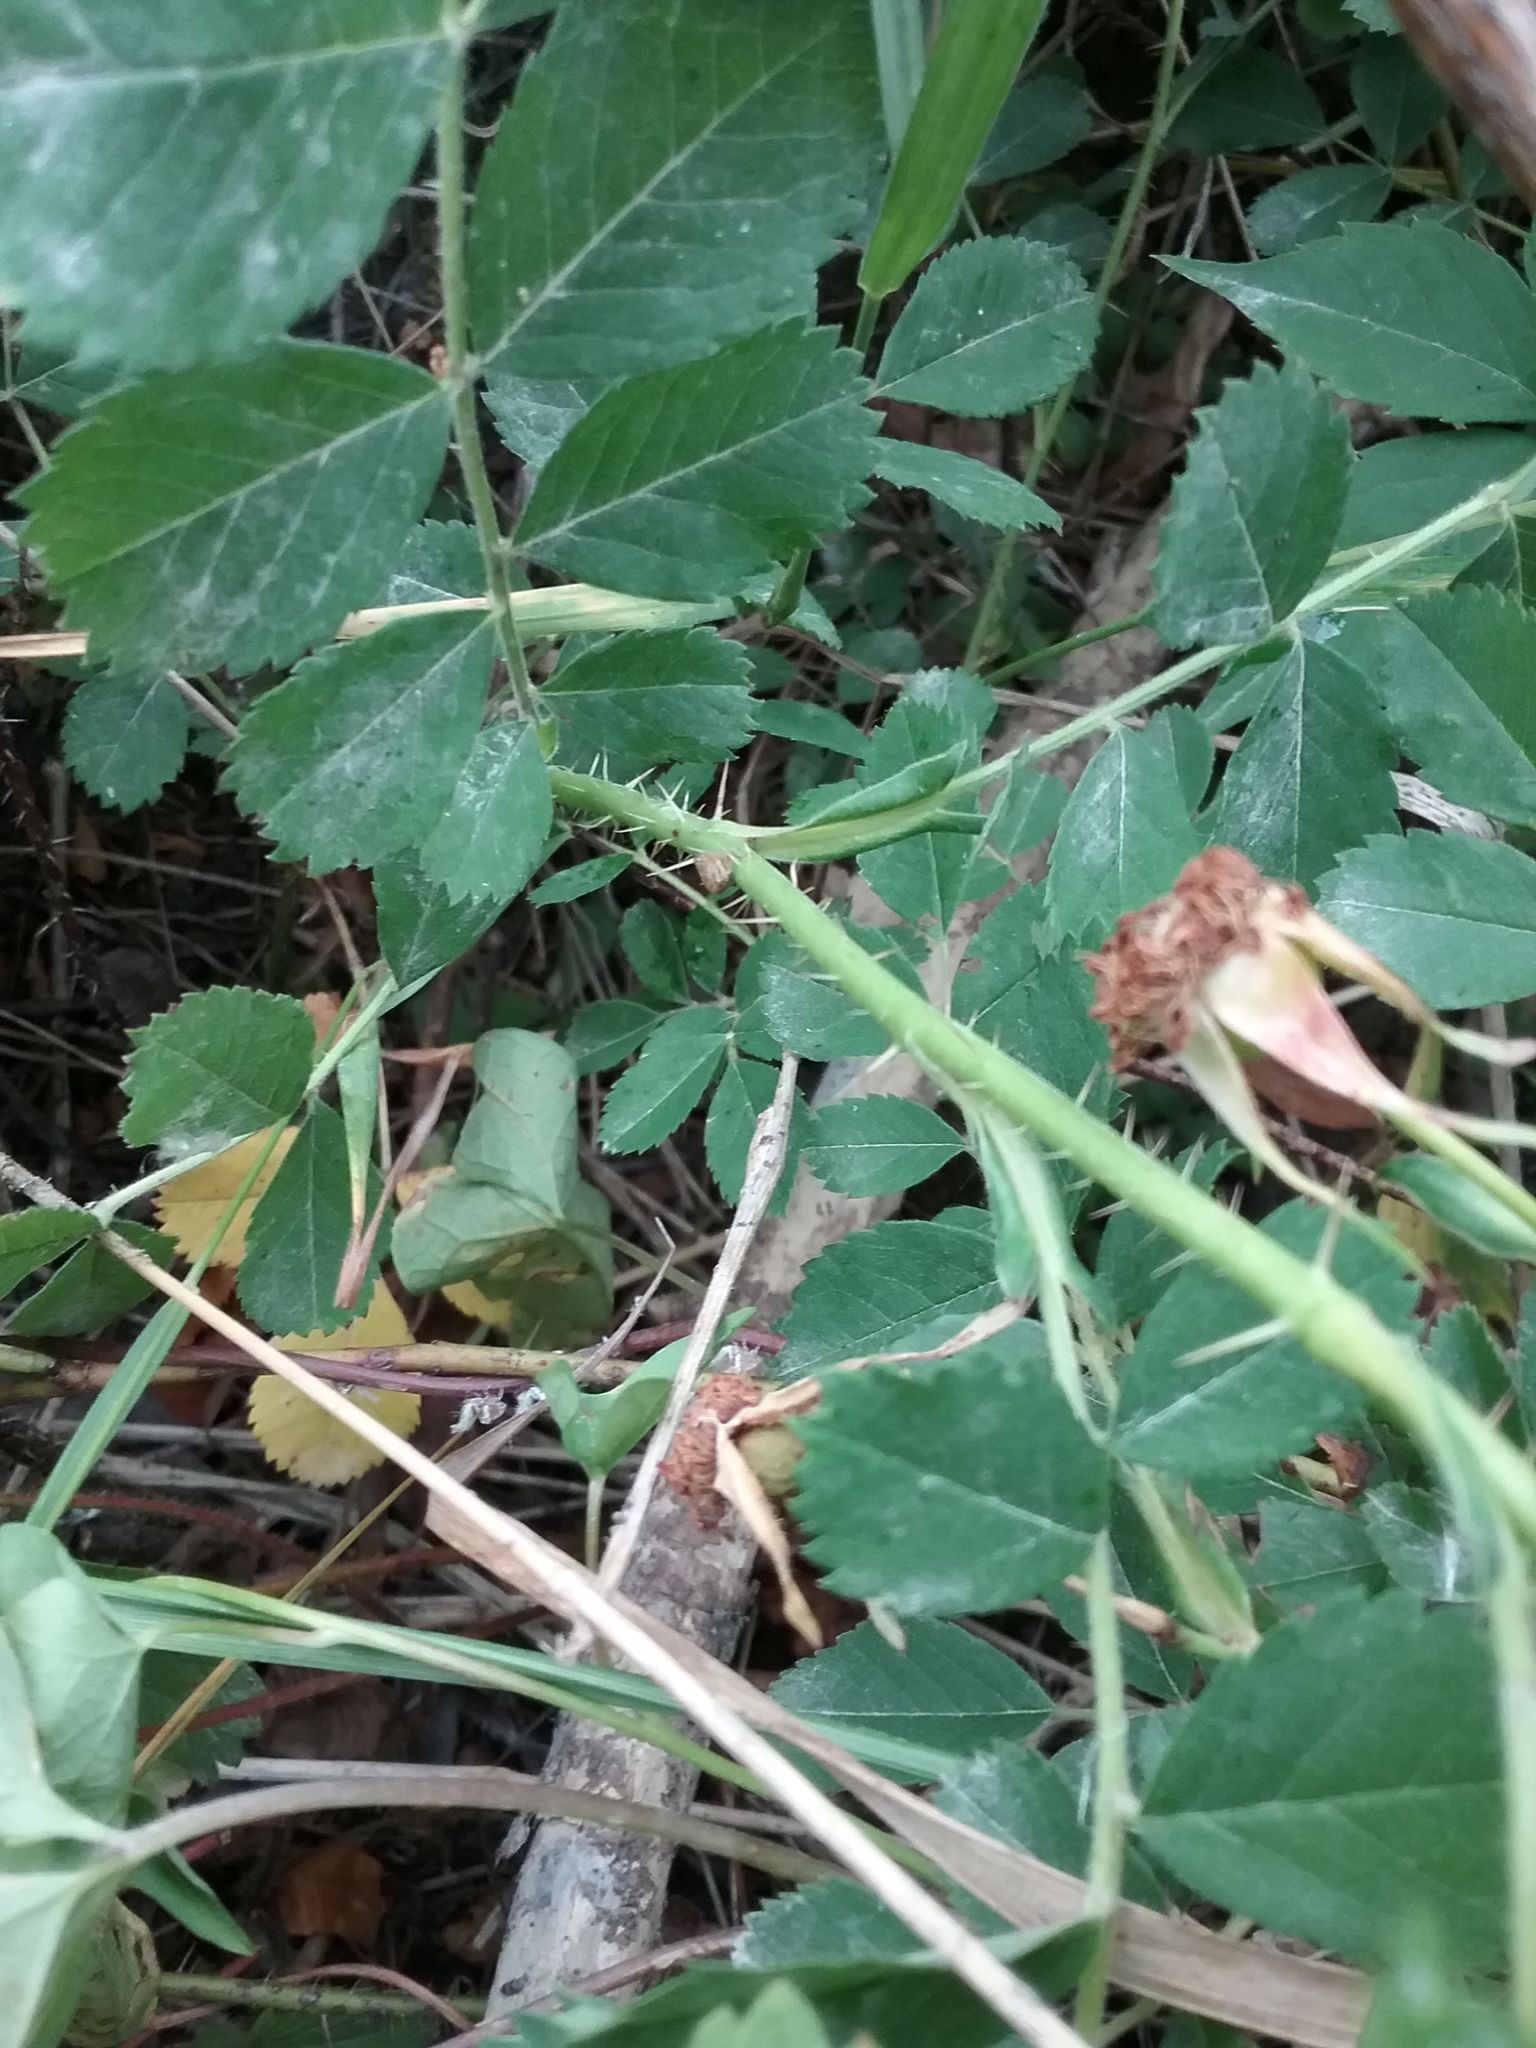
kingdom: Plantae
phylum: Tracheophyta
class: Magnoliopsida
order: Rosales
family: Rosaceae
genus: Rosa
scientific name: Rosa carolina
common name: Pasture rose
